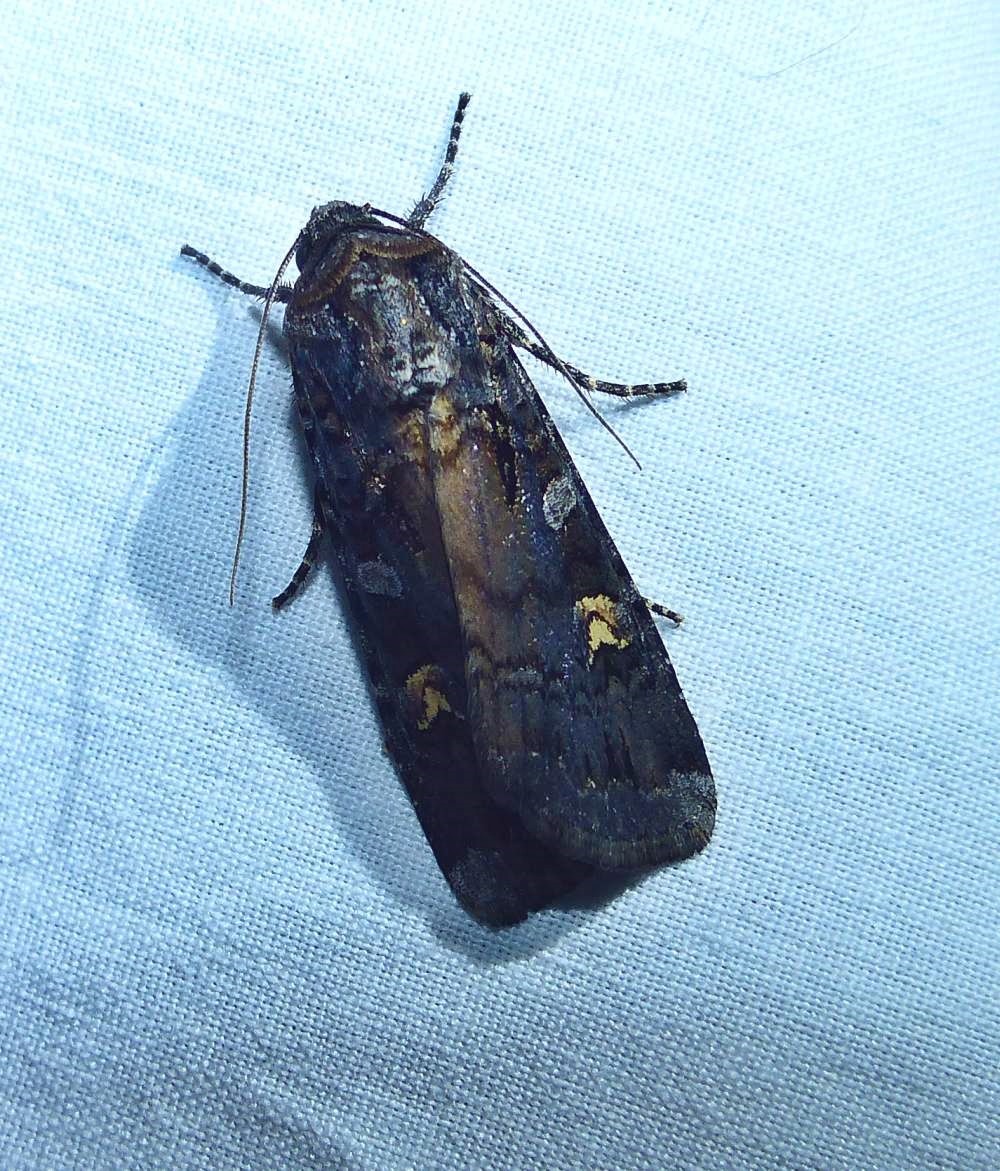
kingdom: Animalia
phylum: Arthropoda
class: Insecta
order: Lepidoptera
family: Noctuidae
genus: Actebia
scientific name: Actebia fennica
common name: Eversmann's rustic
